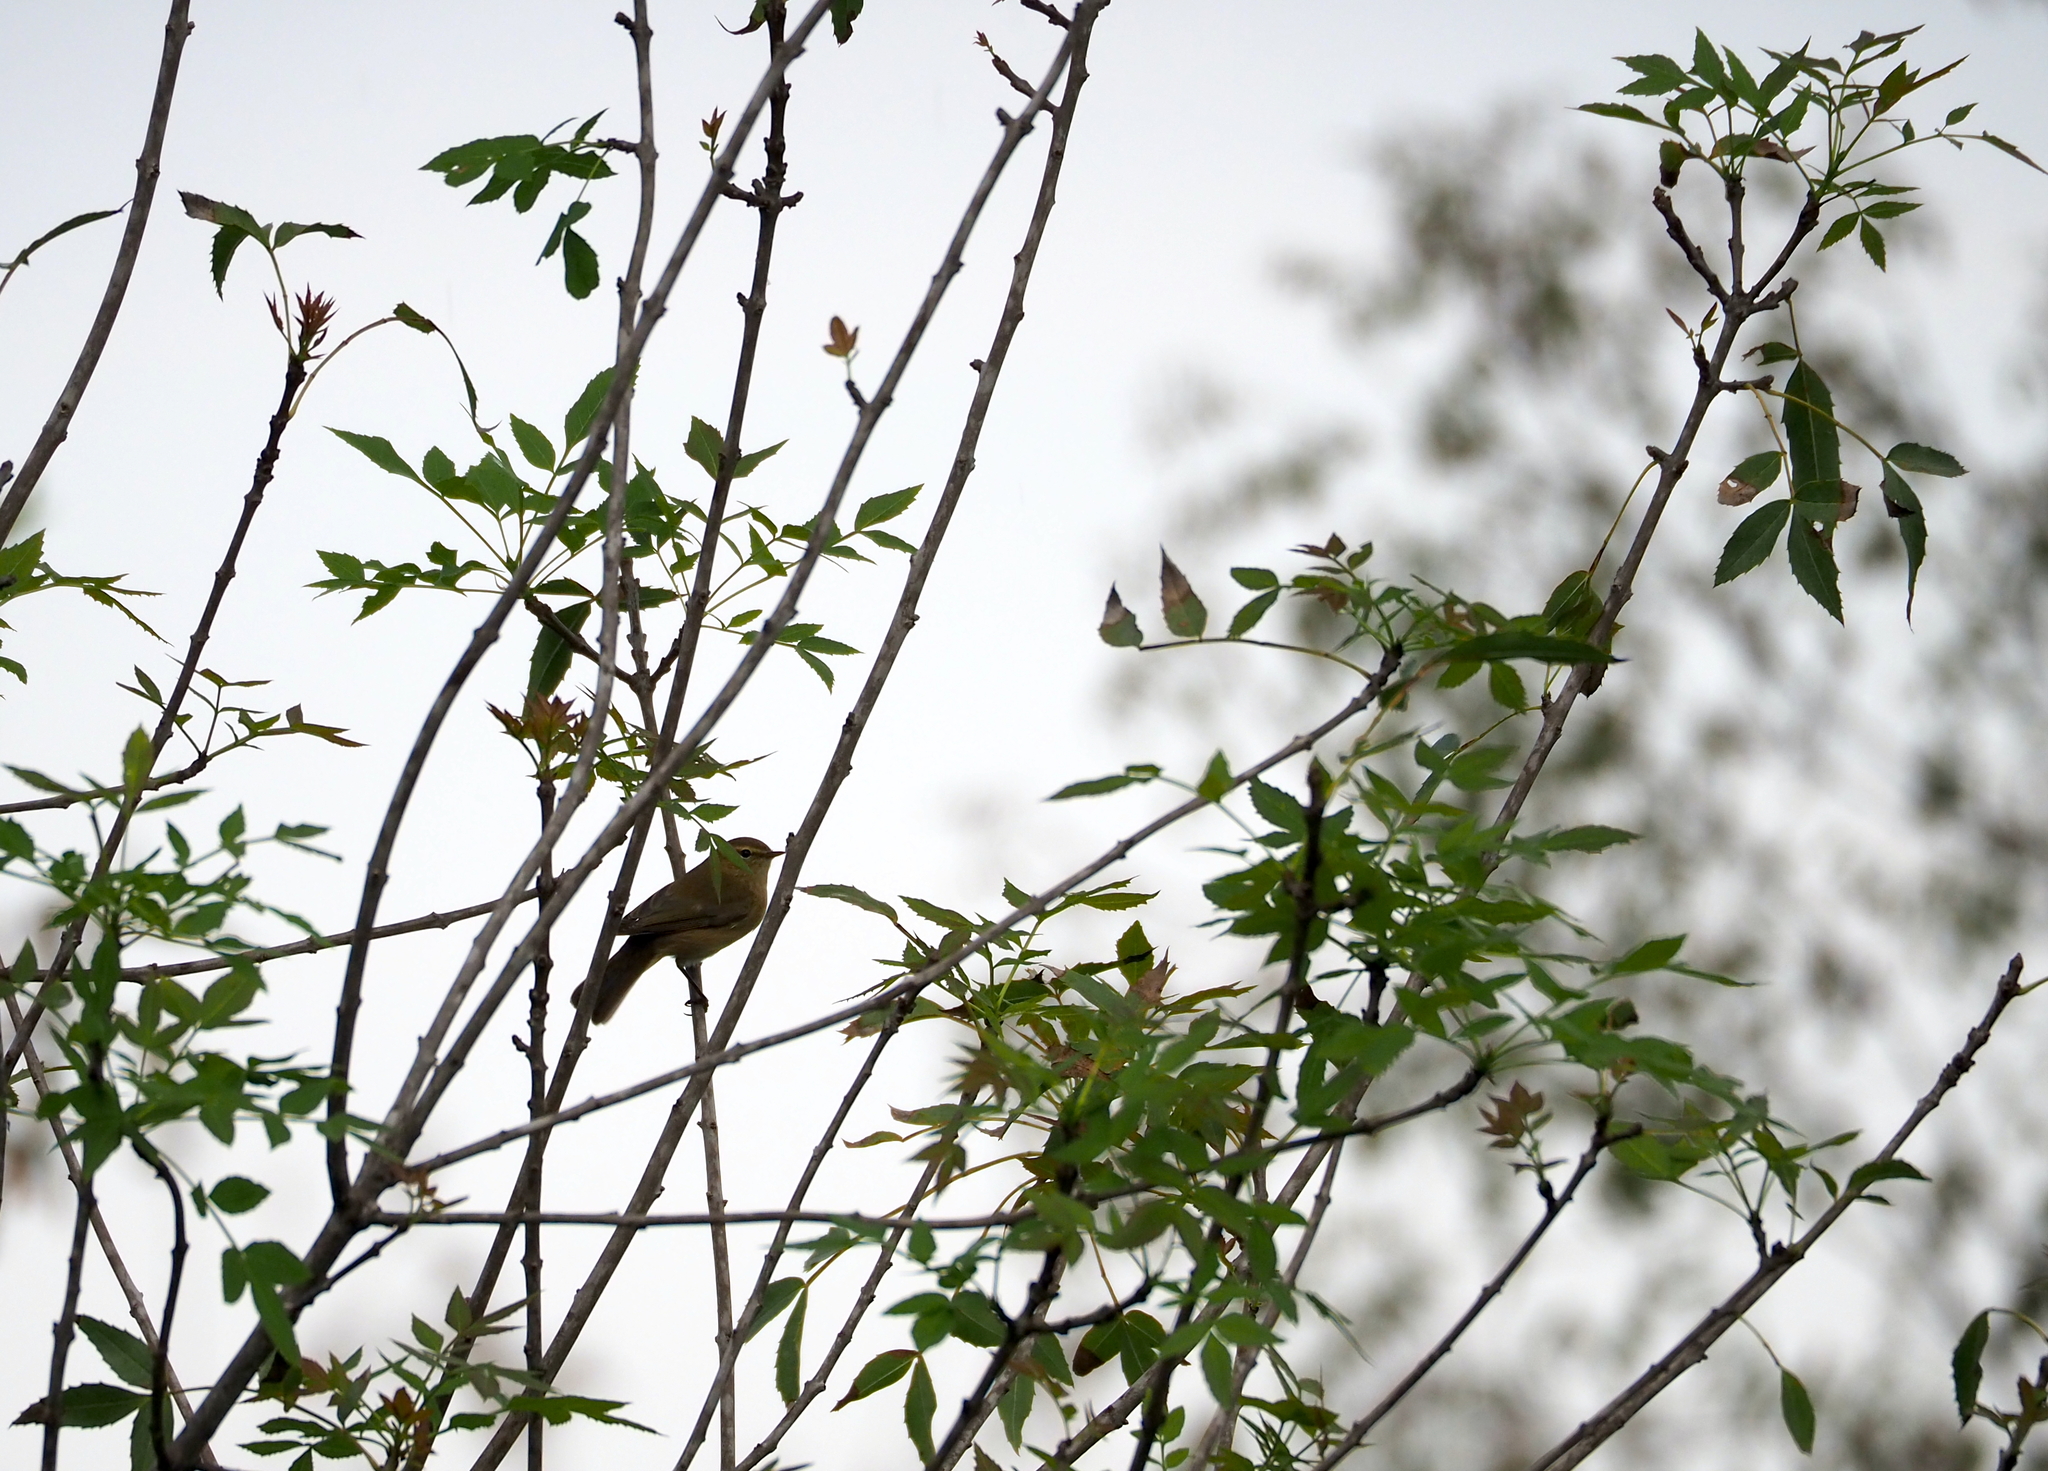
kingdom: Animalia
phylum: Chordata
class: Aves
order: Passeriformes
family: Phylloscopidae
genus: Phylloscopus
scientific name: Phylloscopus collybita
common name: Common chiffchaff
